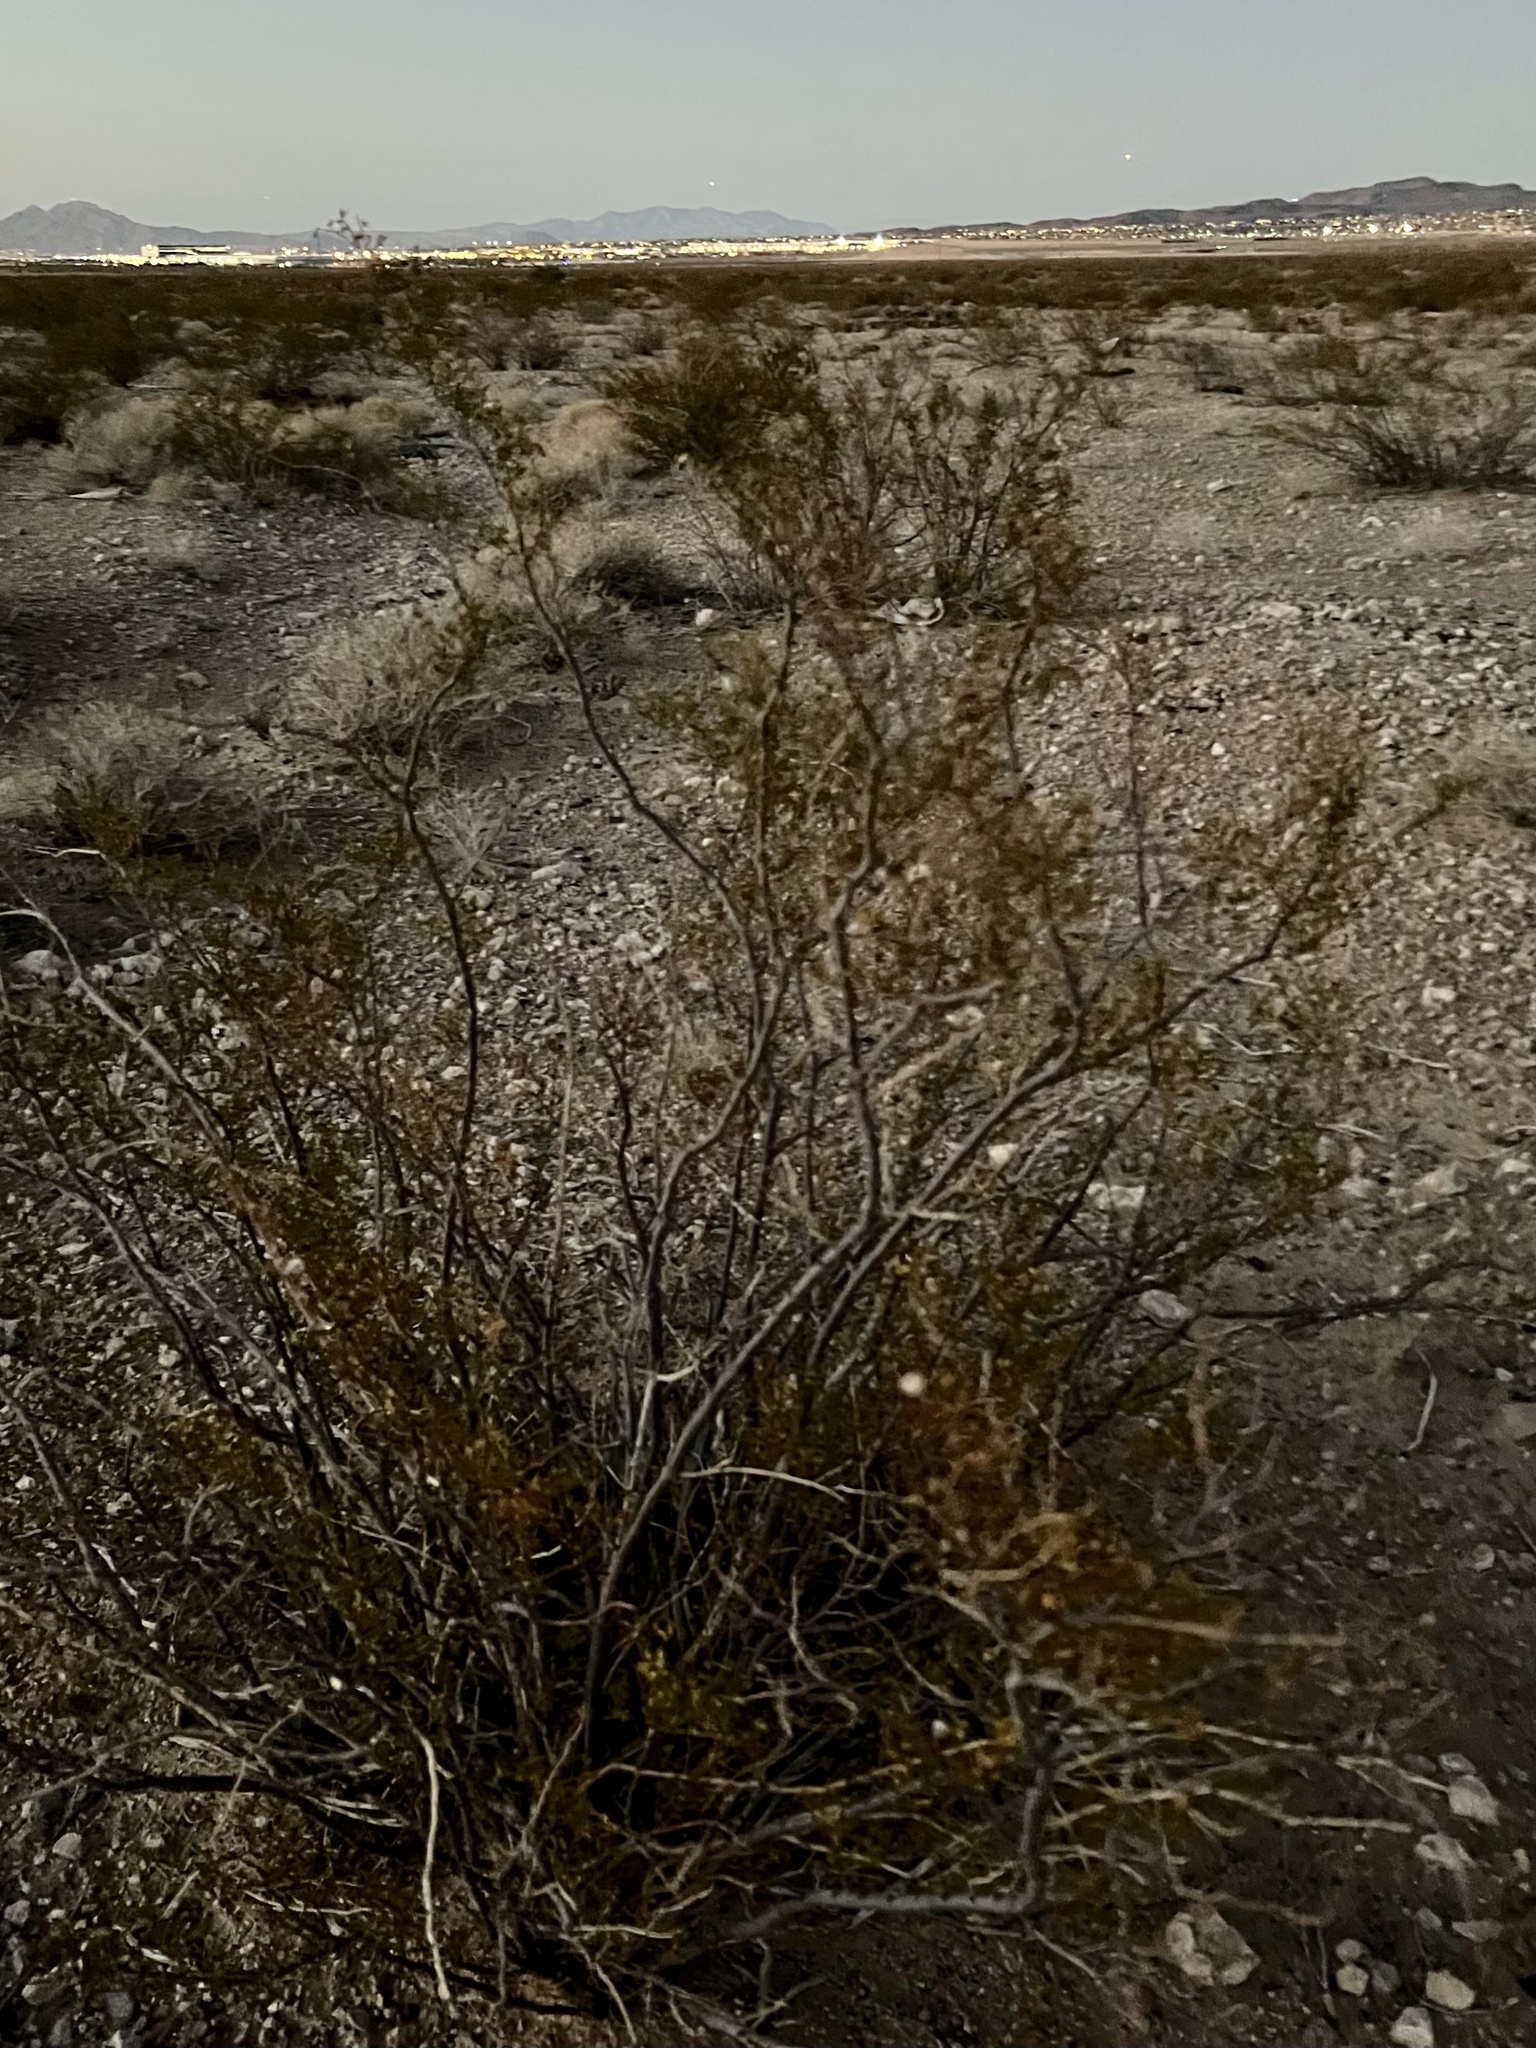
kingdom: Plantae
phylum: Tracheophyta
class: Magnoliopsida
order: Zygophyllales
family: Zygophyllaceae
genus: Larrea
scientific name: Larrea tridentata
